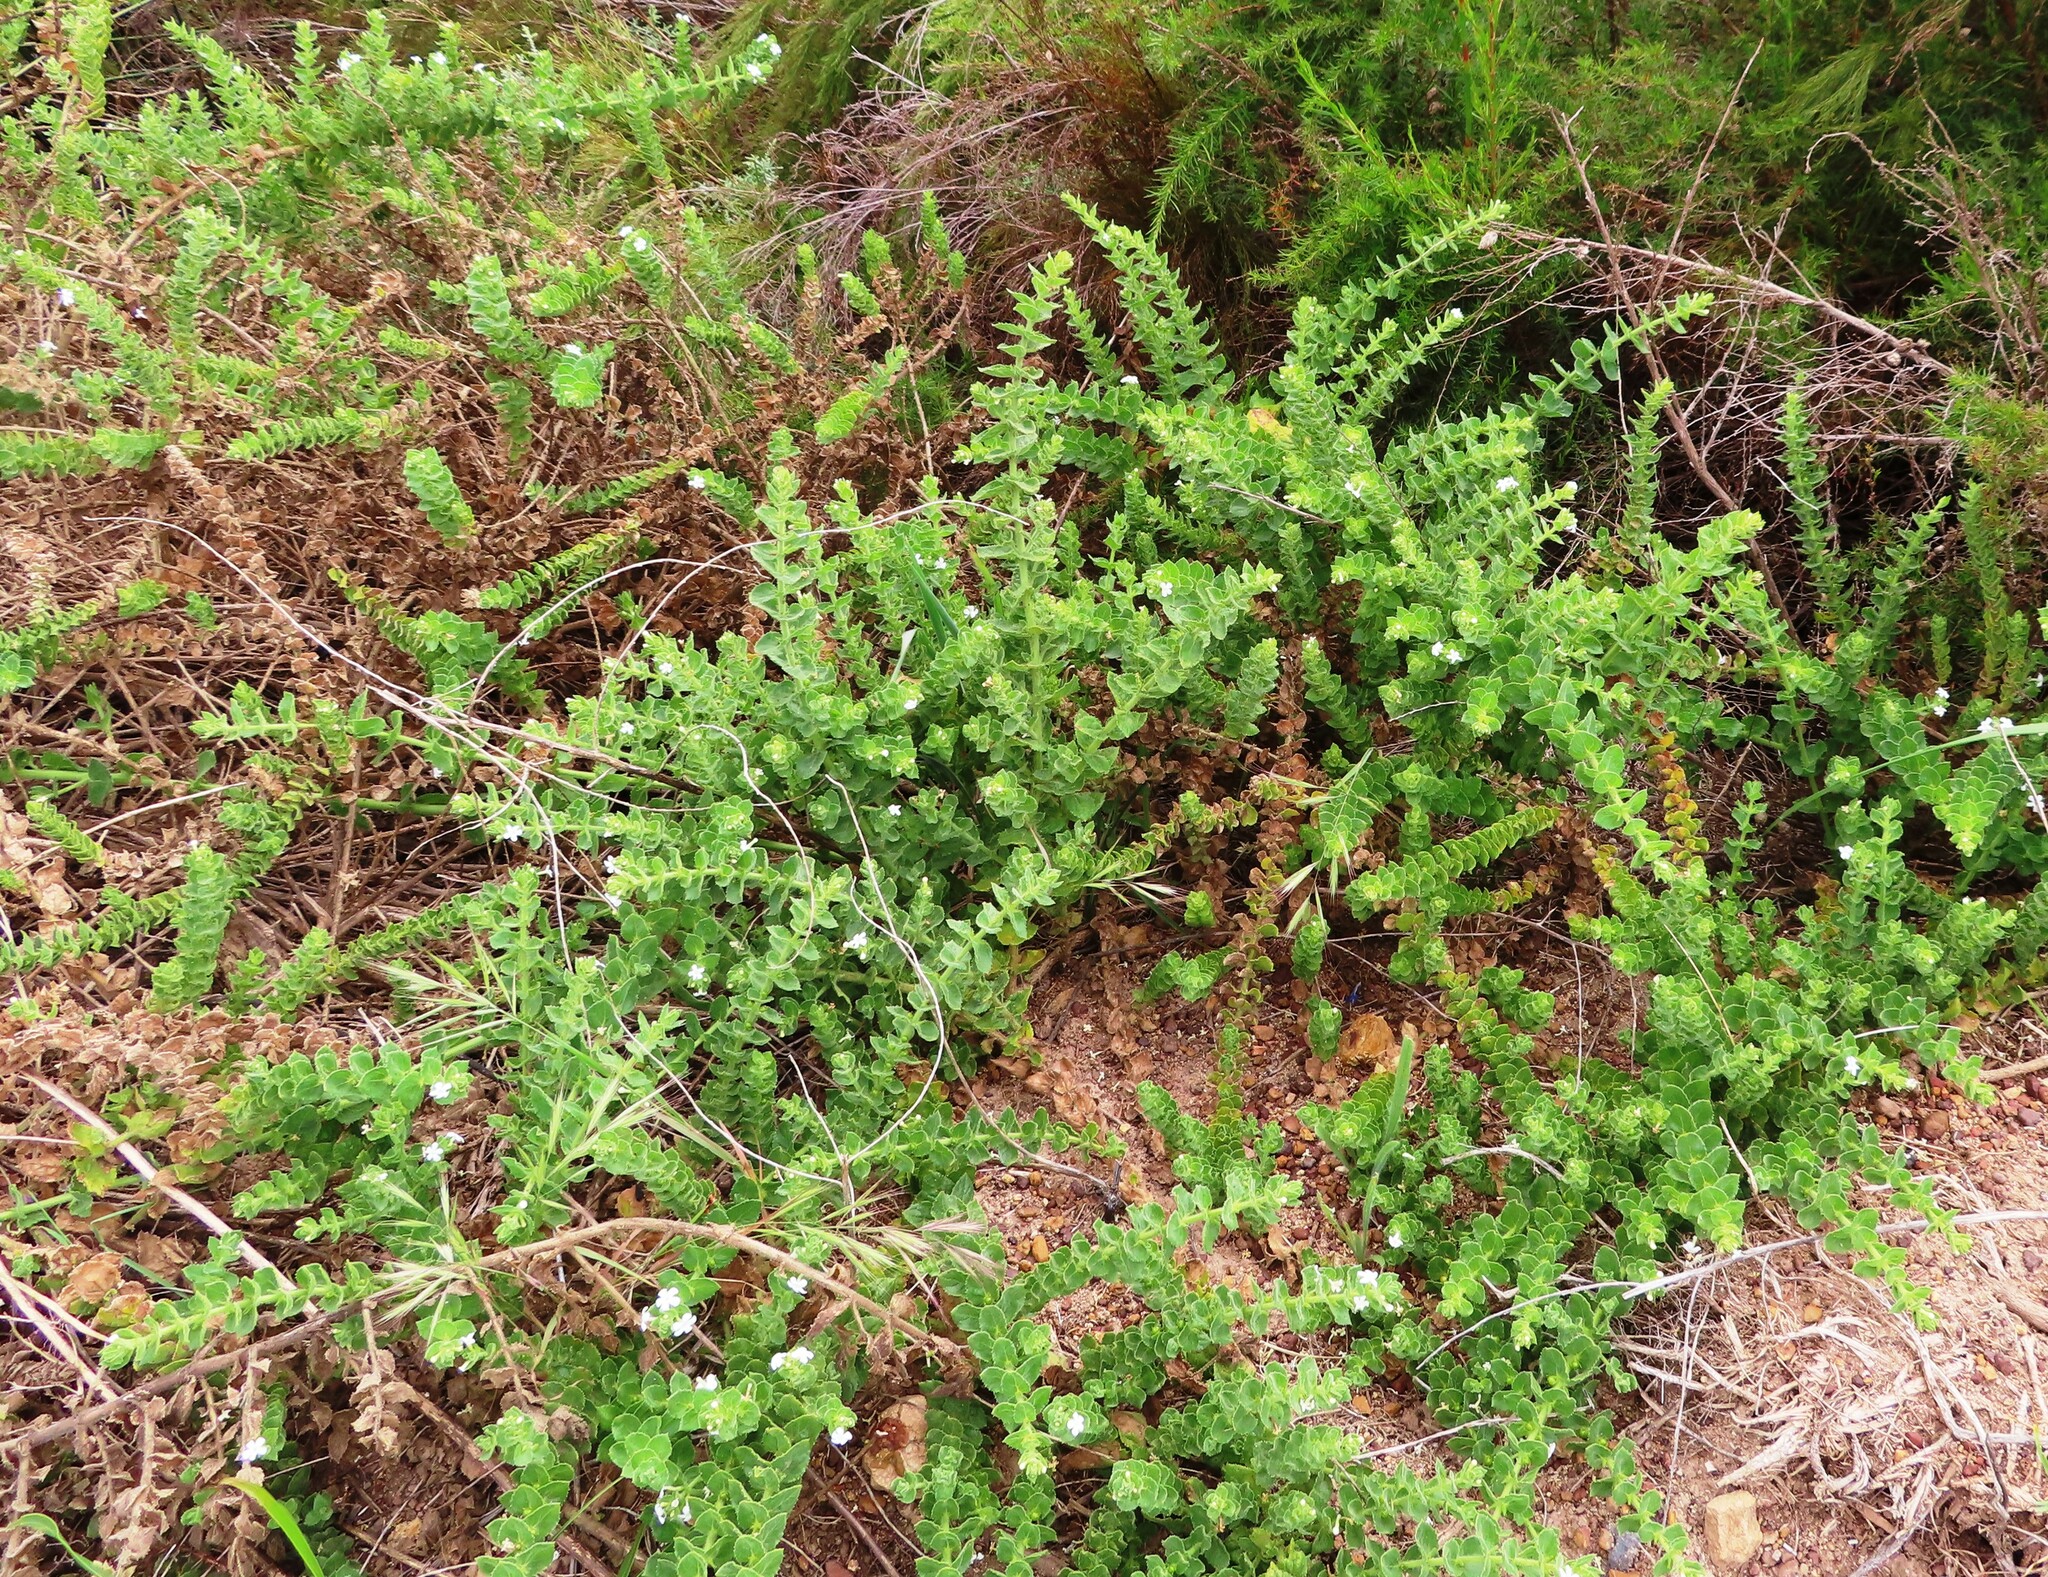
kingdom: Plantae
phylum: Tracheophyta
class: Magnoliopsida
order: Lamiales
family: Scrophulariaceae
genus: Oftia
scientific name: Oftia africana
